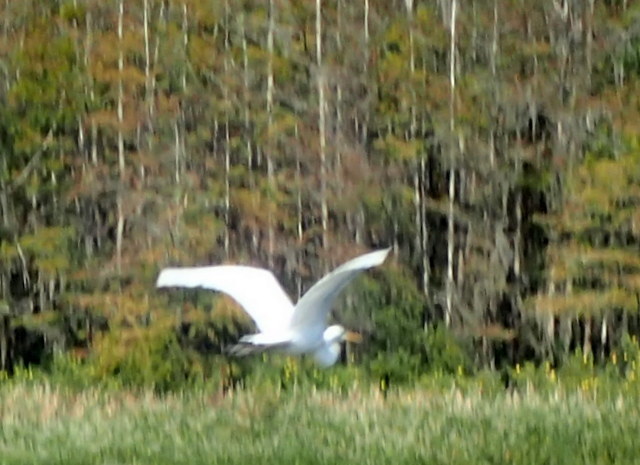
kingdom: Animalia
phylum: Chordata
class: Aves
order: Pelecaniformes
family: Ardeidae
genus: Ardea
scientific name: Ardea alba
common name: Great egret
